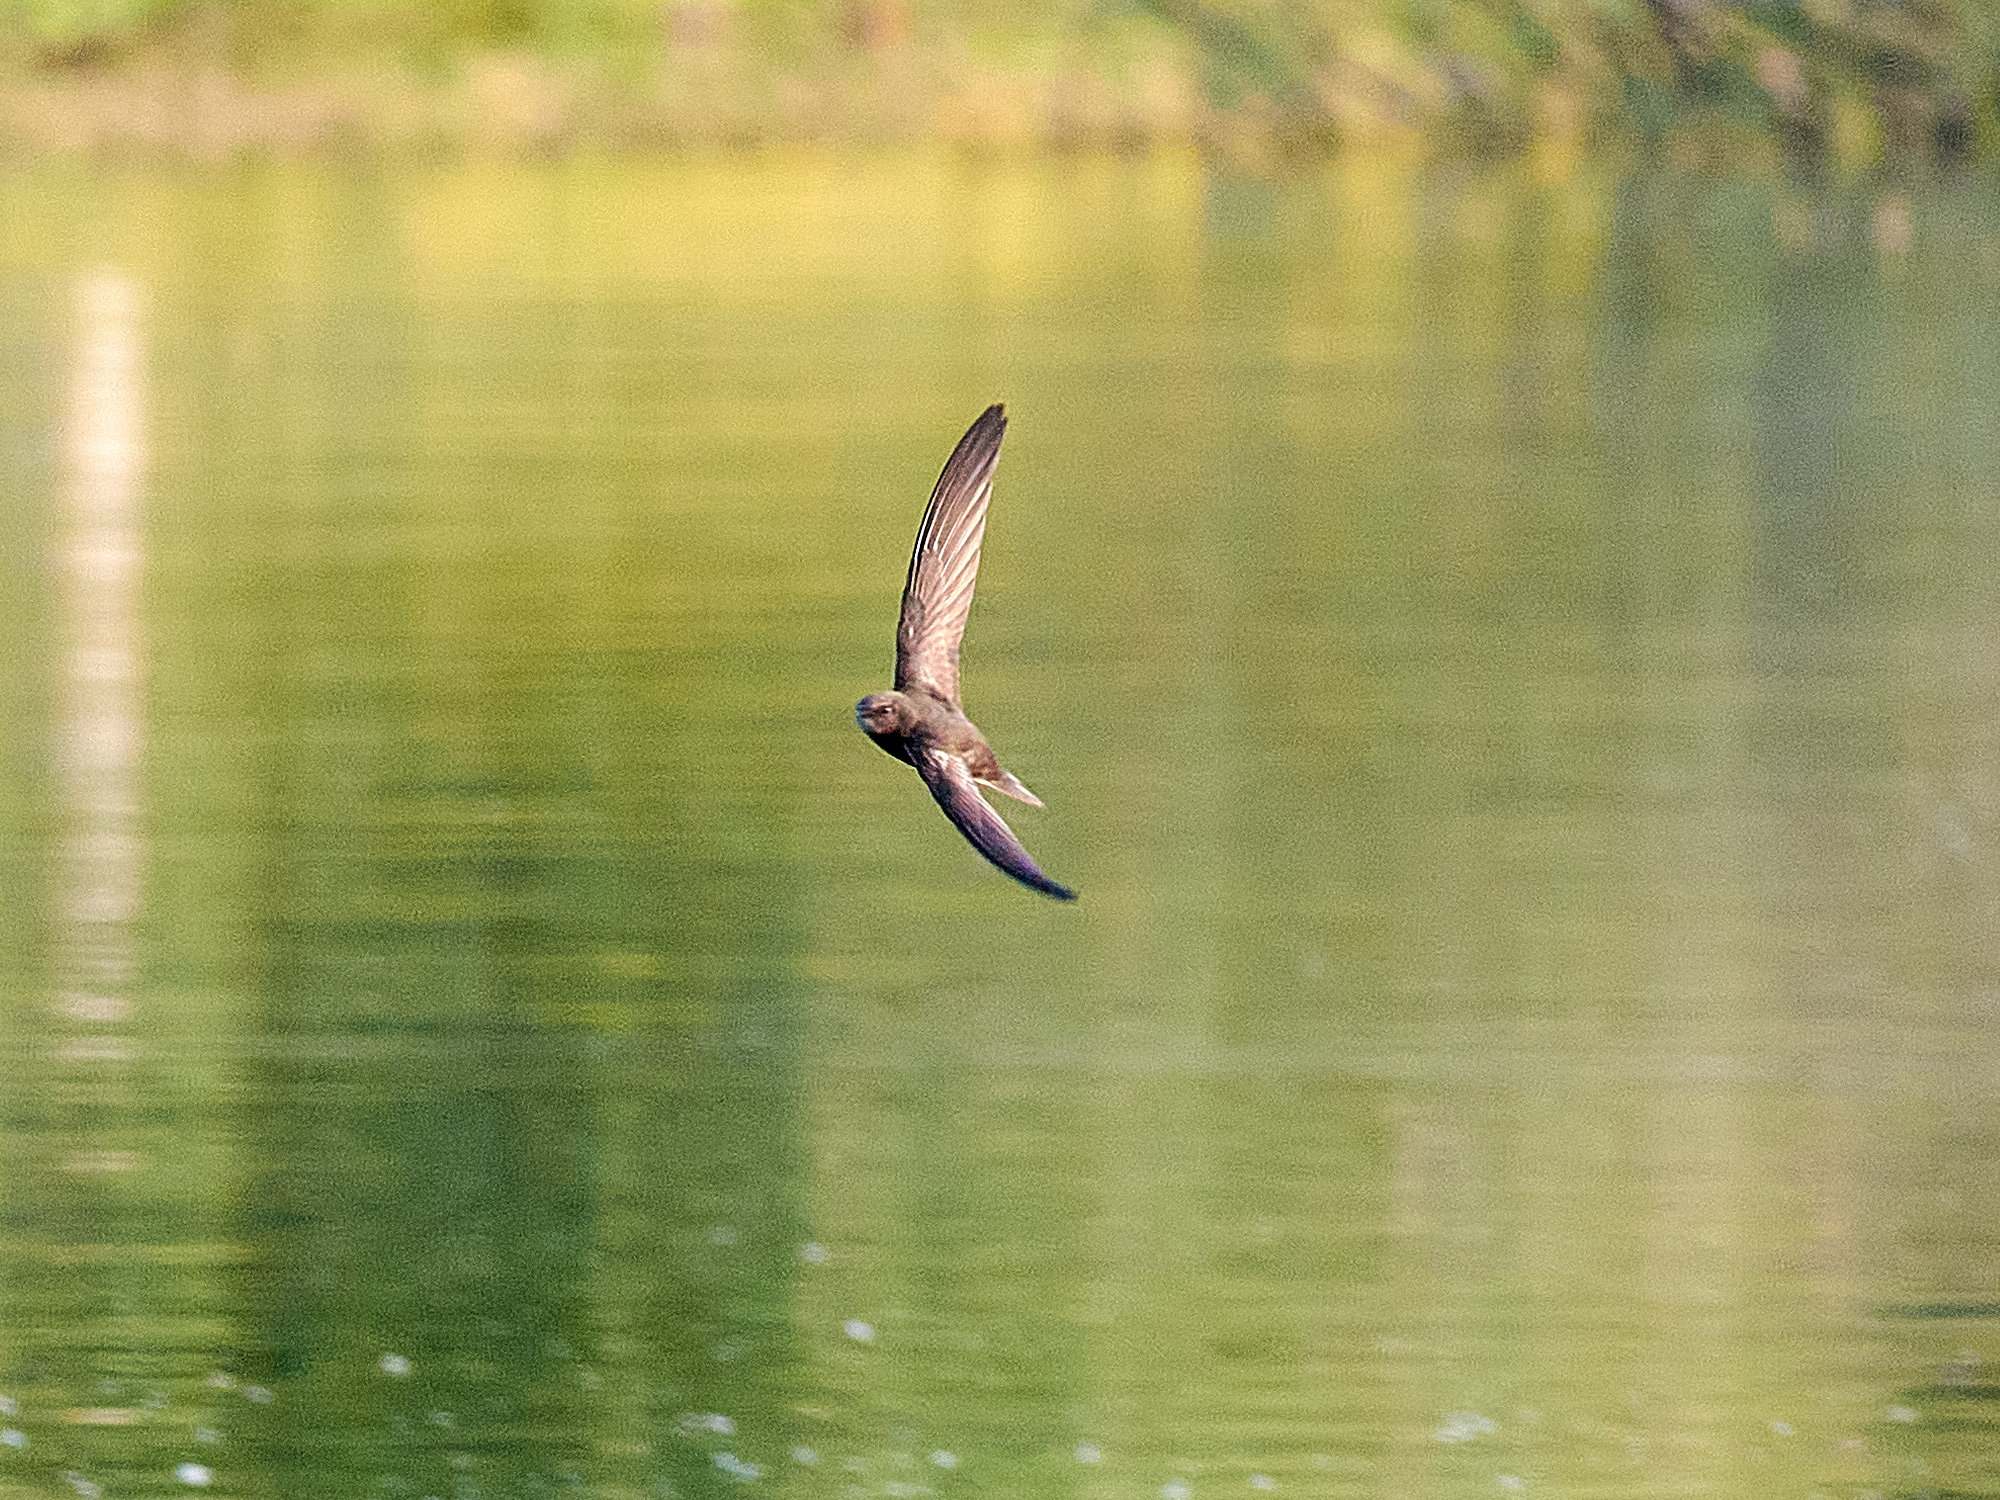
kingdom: Animalia
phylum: Chordata
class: Aves
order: Apodiformes
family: Apodidae
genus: Apus
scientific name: Apus apus
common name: Common swift
